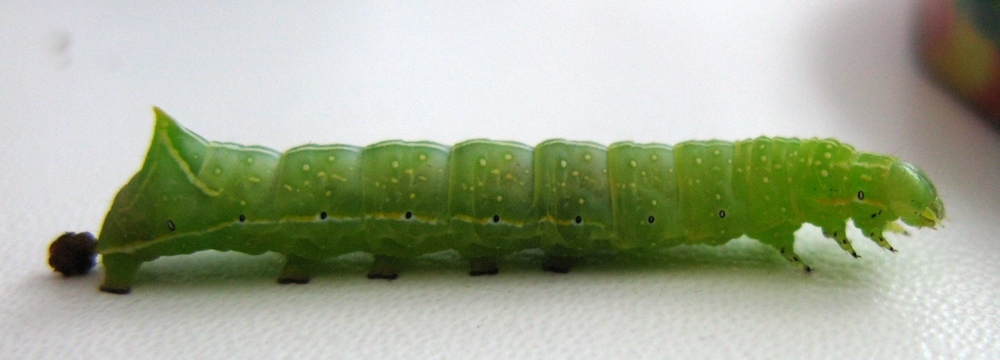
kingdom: Animalia
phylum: Arthropoda
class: Insecta
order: Lepidoptera
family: Noctuidae
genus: Amphipyra
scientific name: Amphipyra pyramidea
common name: Copper underwing
